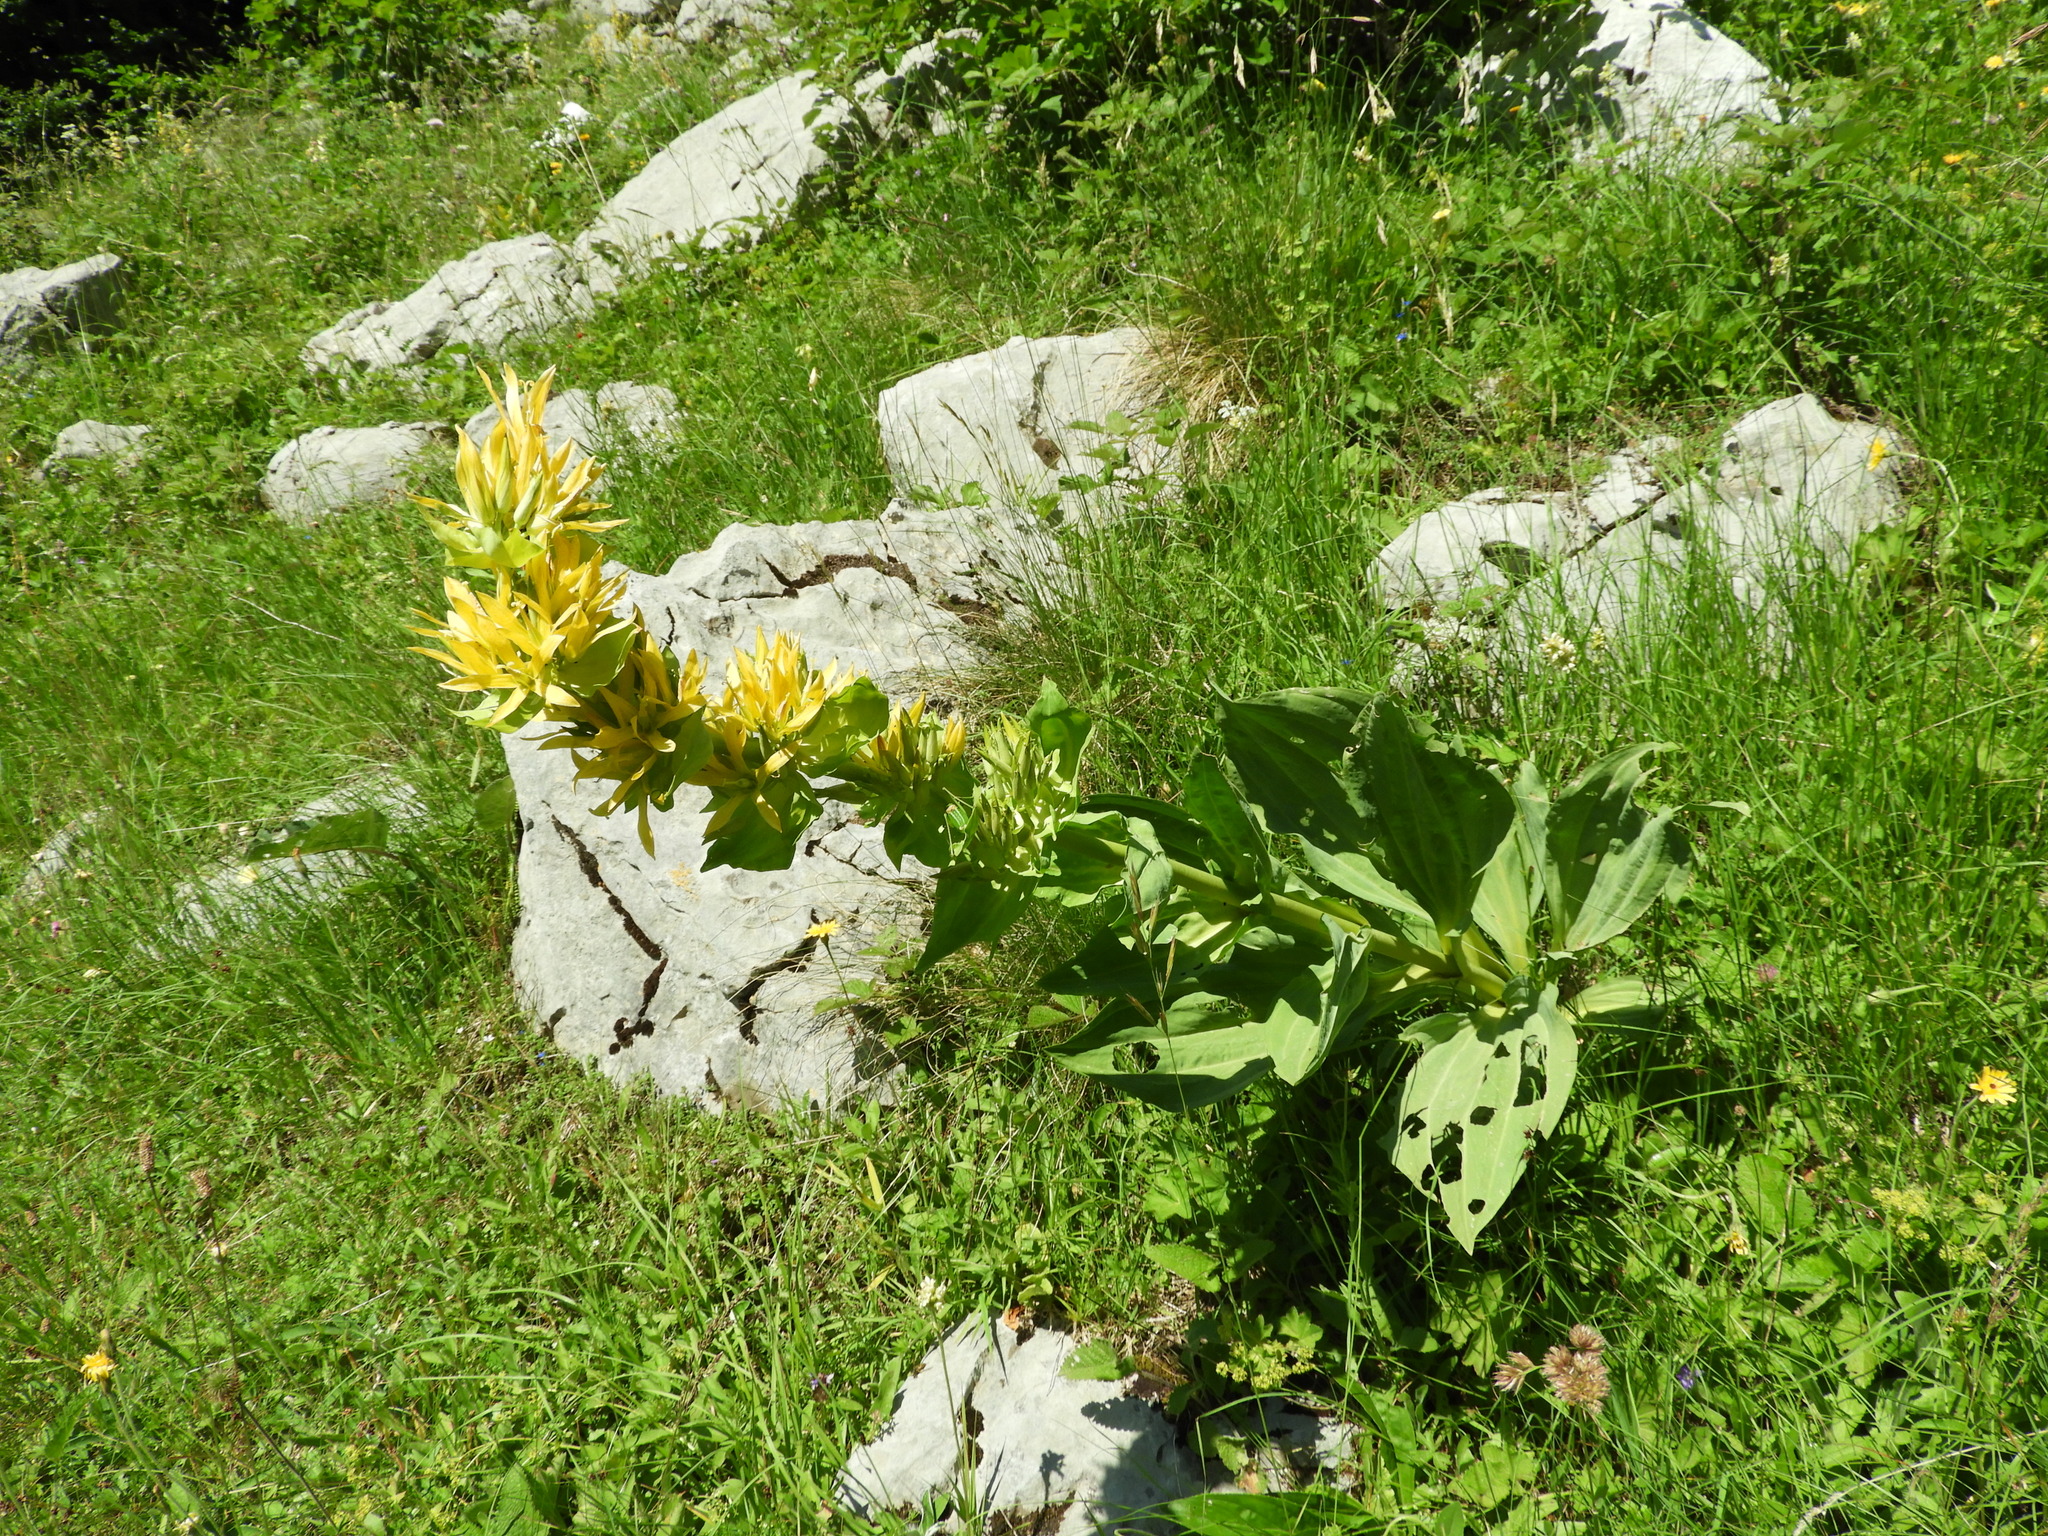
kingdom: Plantae
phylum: Tracheophyta
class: Magnoliopsida
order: Gentianales
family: Gentianaceae
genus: Gentiana
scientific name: Gentiana lutea
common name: Great yellow gentian
